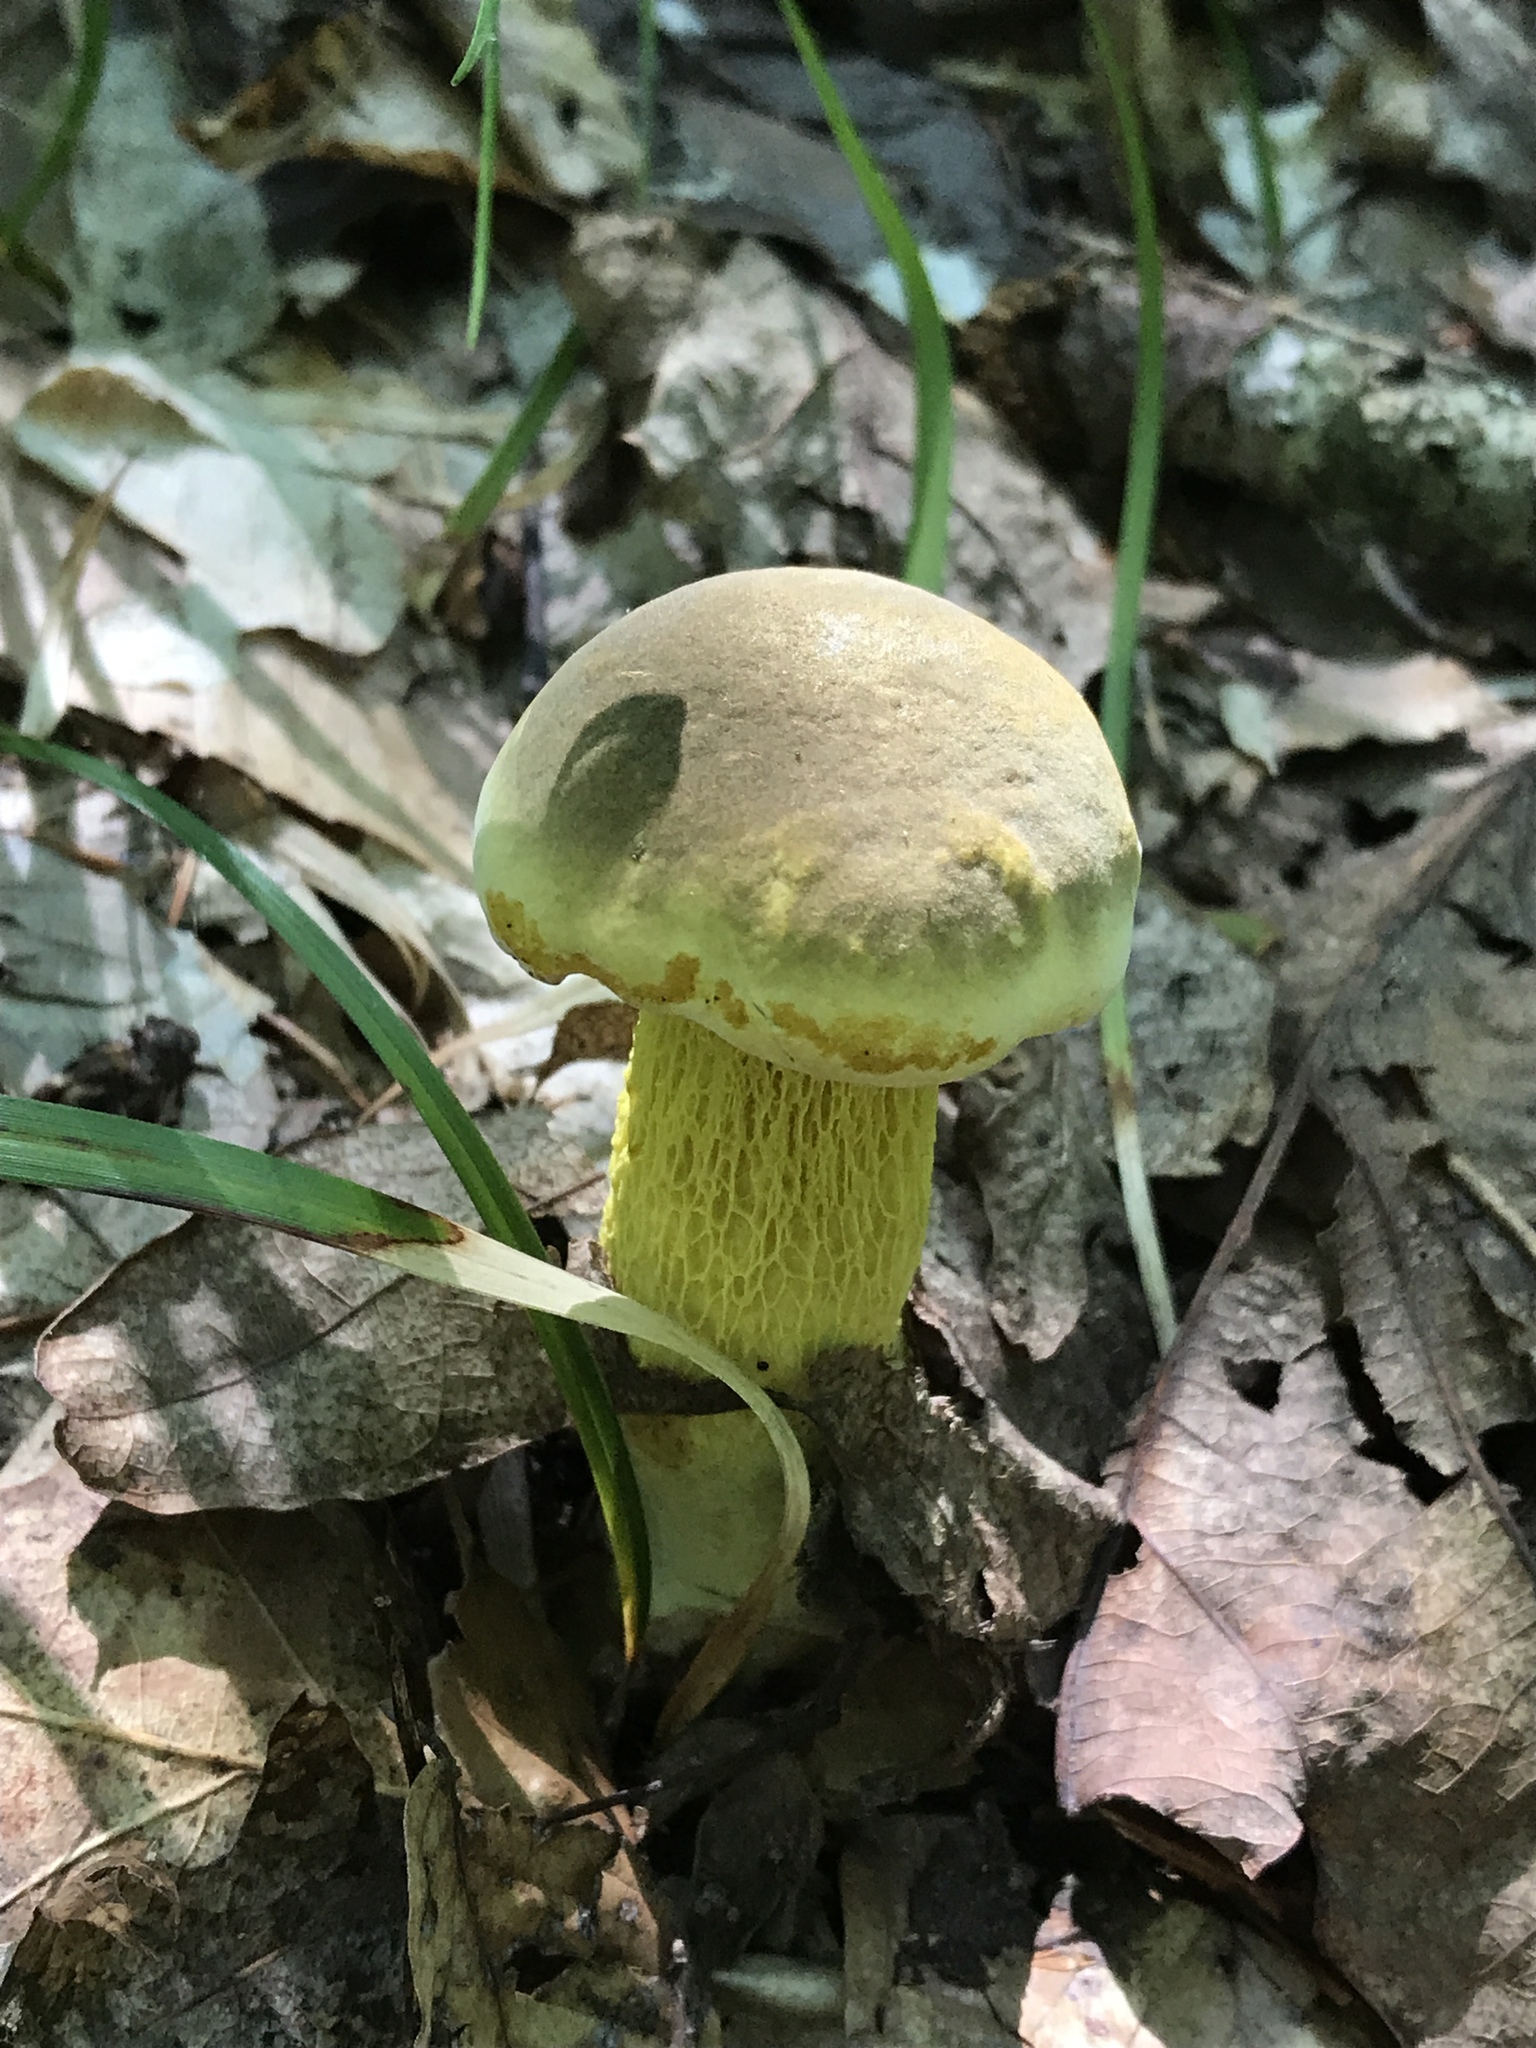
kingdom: Fungi
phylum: Basidiomycota
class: Agaricomycetes
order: Boletales
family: Boletaceae
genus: Retiboletus
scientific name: Retiboletus ornatipes
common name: Ornate-stalked bolete
